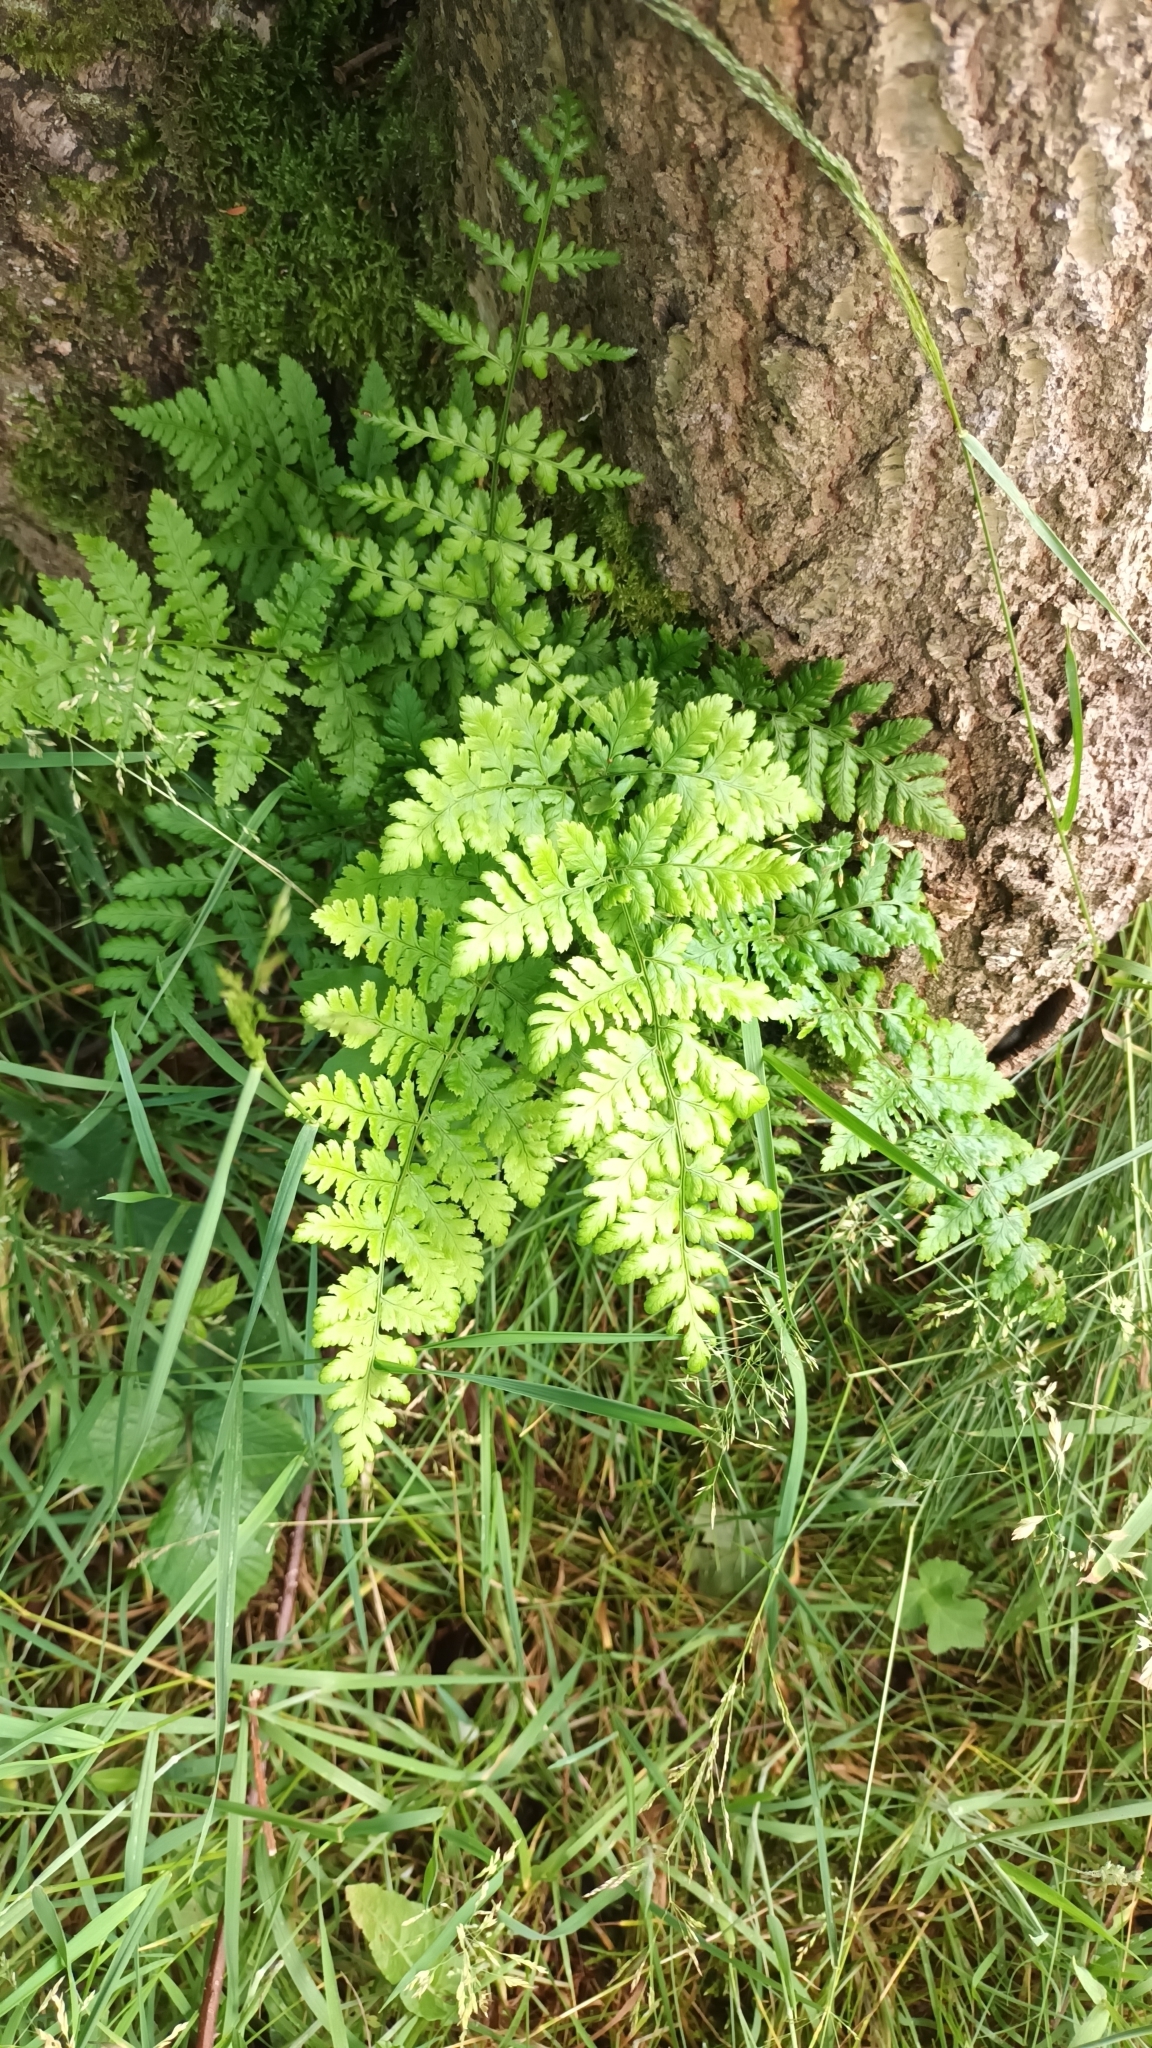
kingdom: Plantae
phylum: Tracheophyta
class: Polypodiopsida
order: Polypodiales
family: Dryopteridaceae
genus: Dryopteris
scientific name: Dryopteris dilatata
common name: Broad buckler-fern
